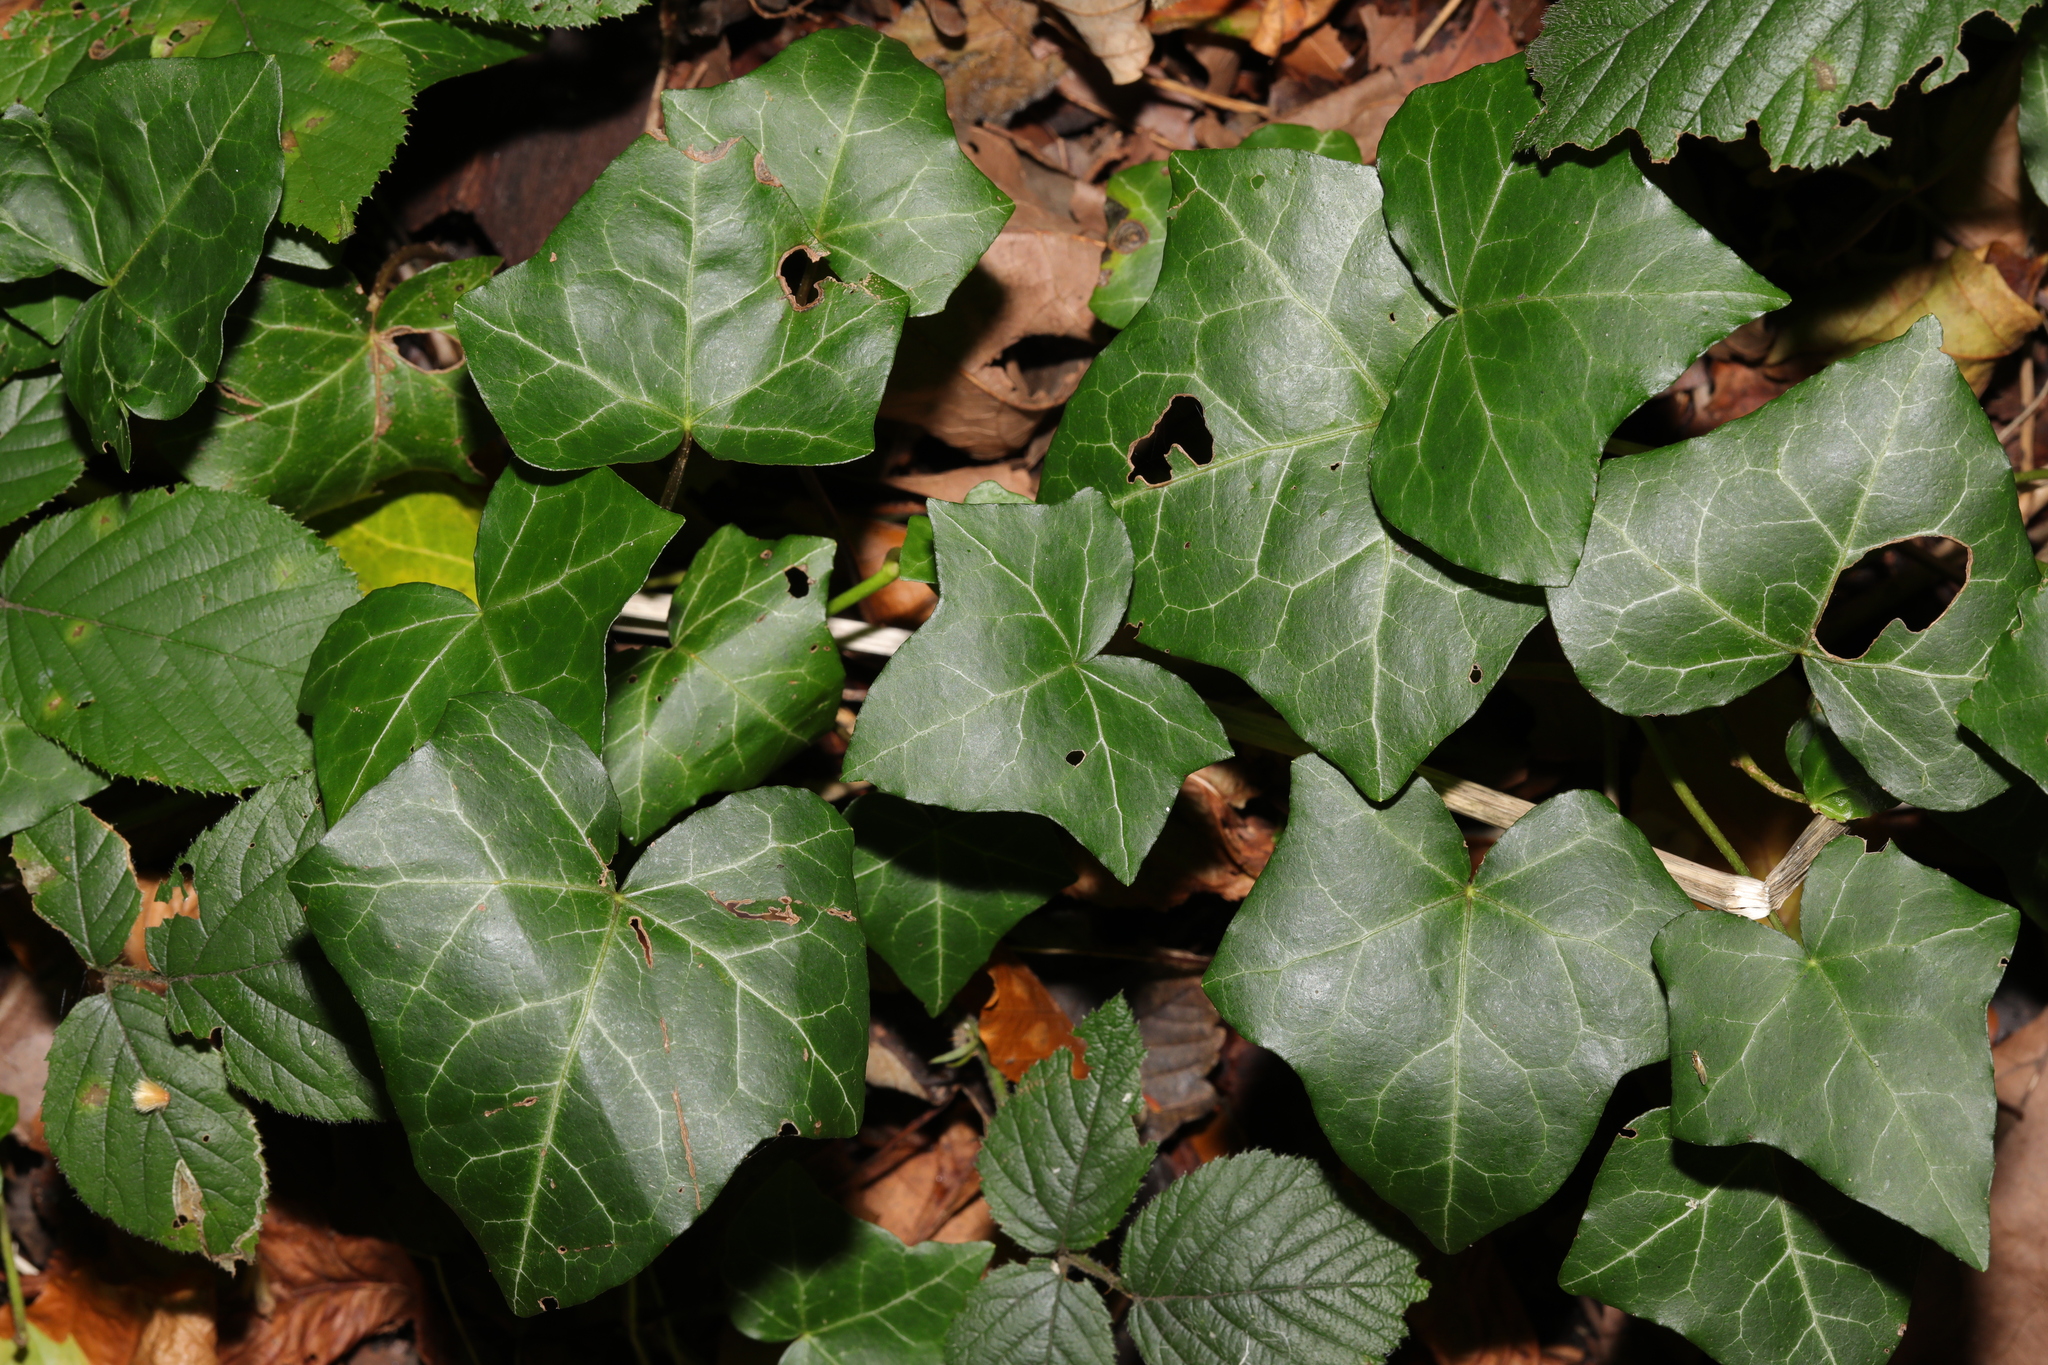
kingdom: Plantae
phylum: Tracheophyta
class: Magnoliopsida
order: Apiales
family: Araliaceae
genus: Hedera
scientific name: Hedera helix
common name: Ivy
